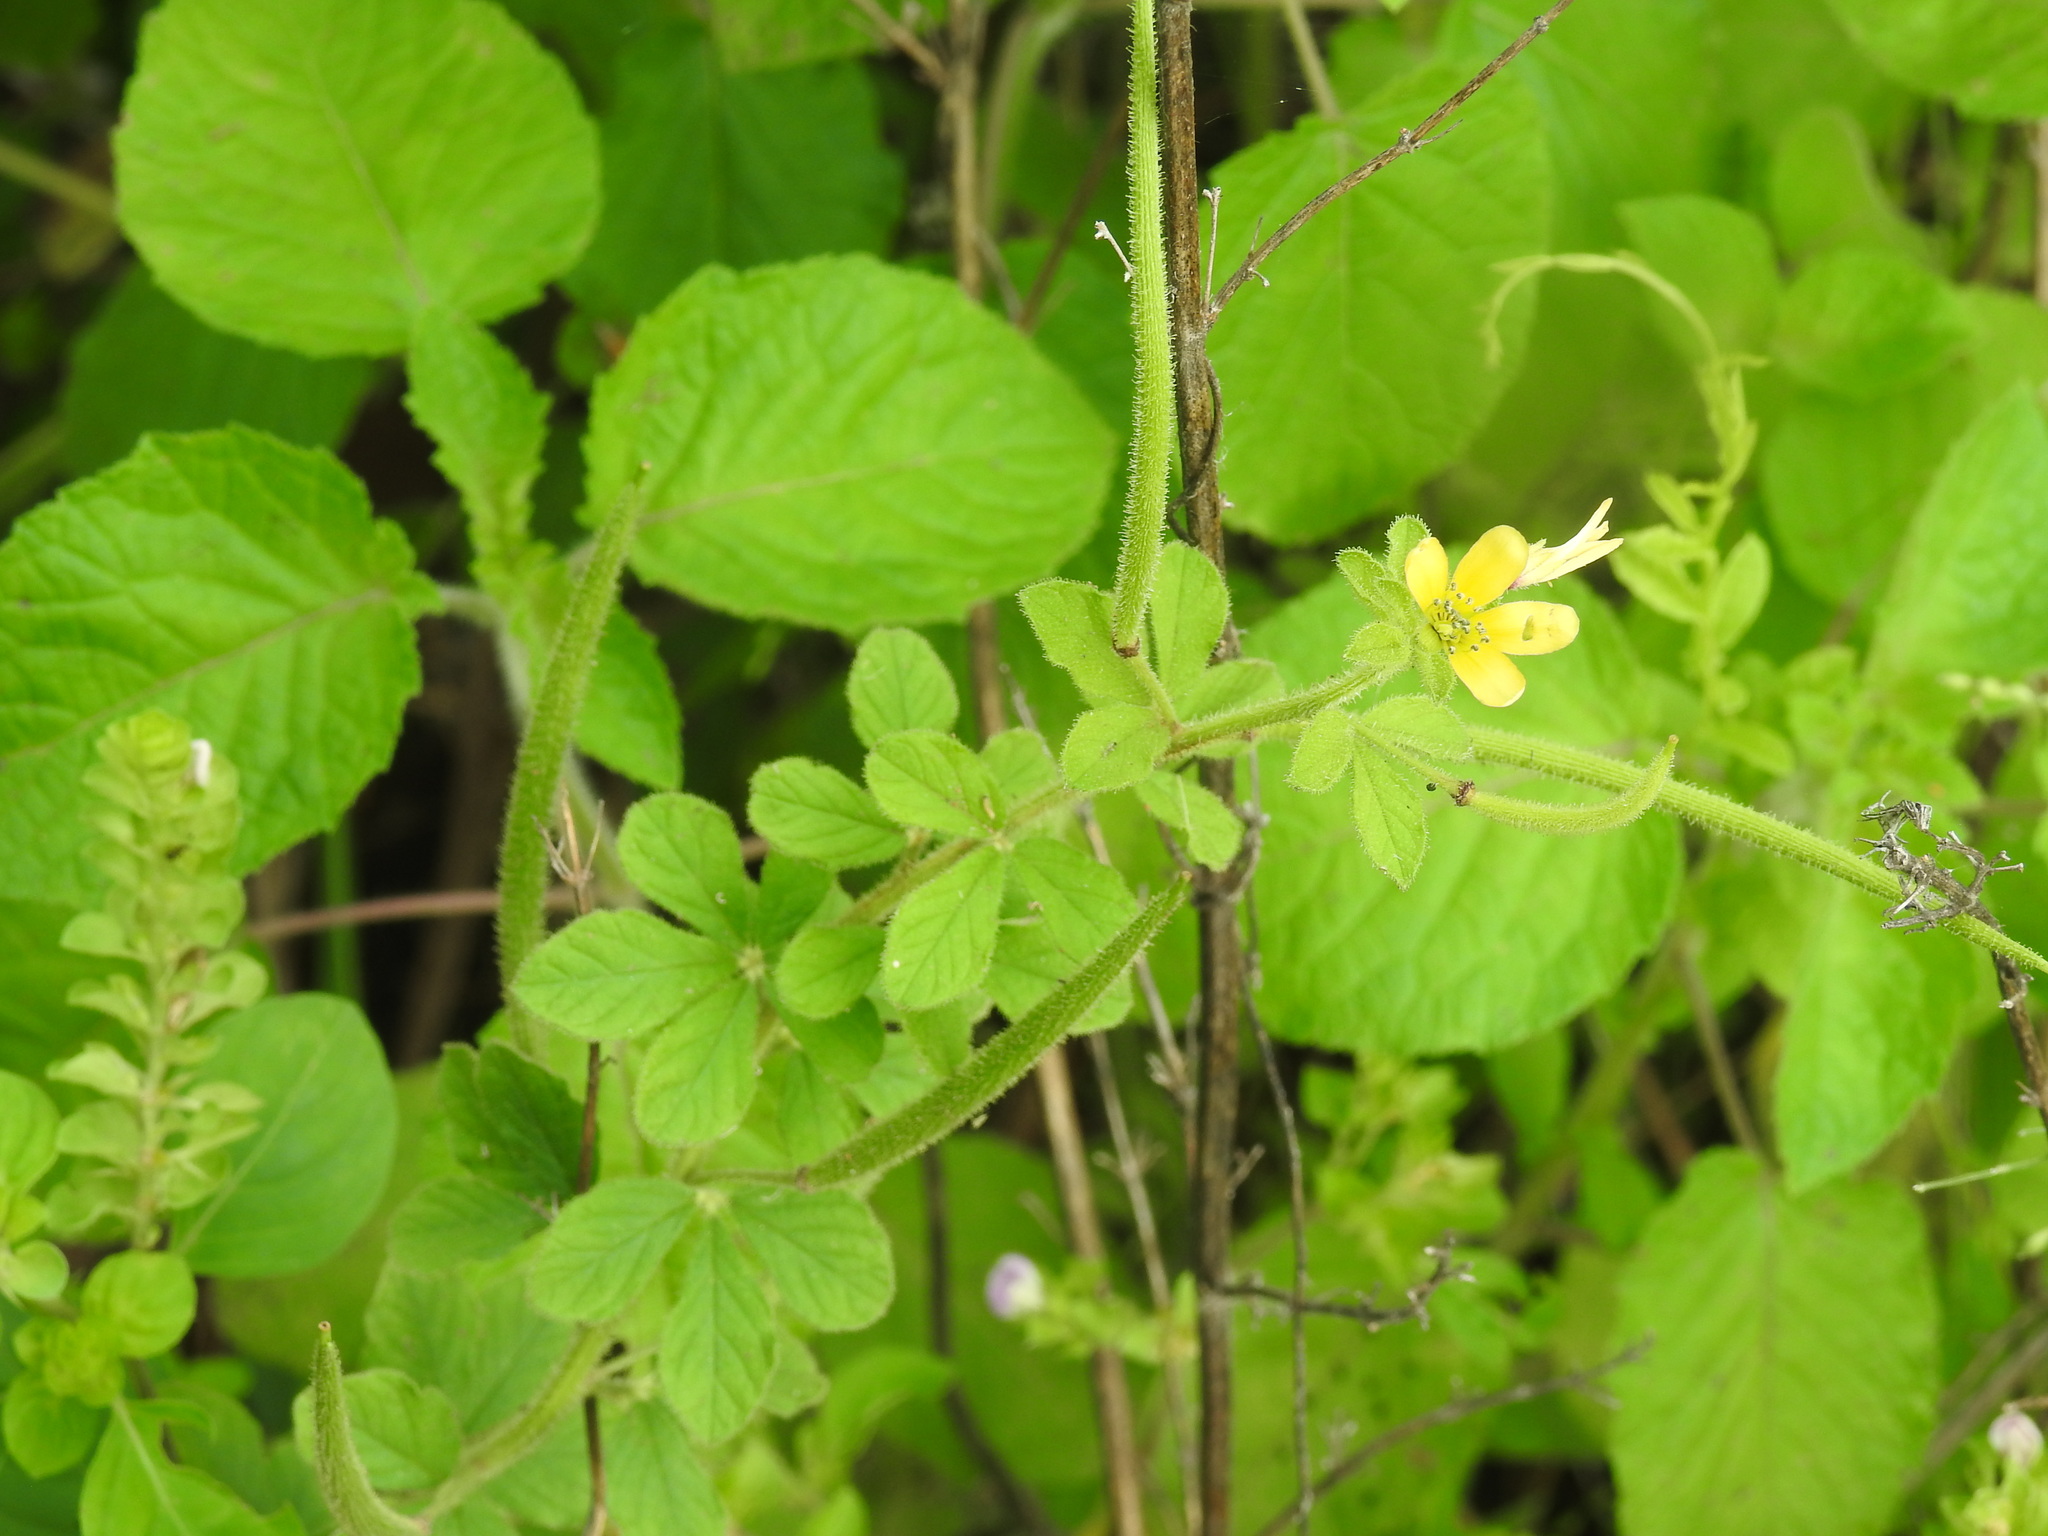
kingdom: Plantae
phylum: Tracheophyta
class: Magnoliopsida
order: Brassicales
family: Cleomaceae
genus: Arivela
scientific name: Arivela viscosa
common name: Asian spiderflower
